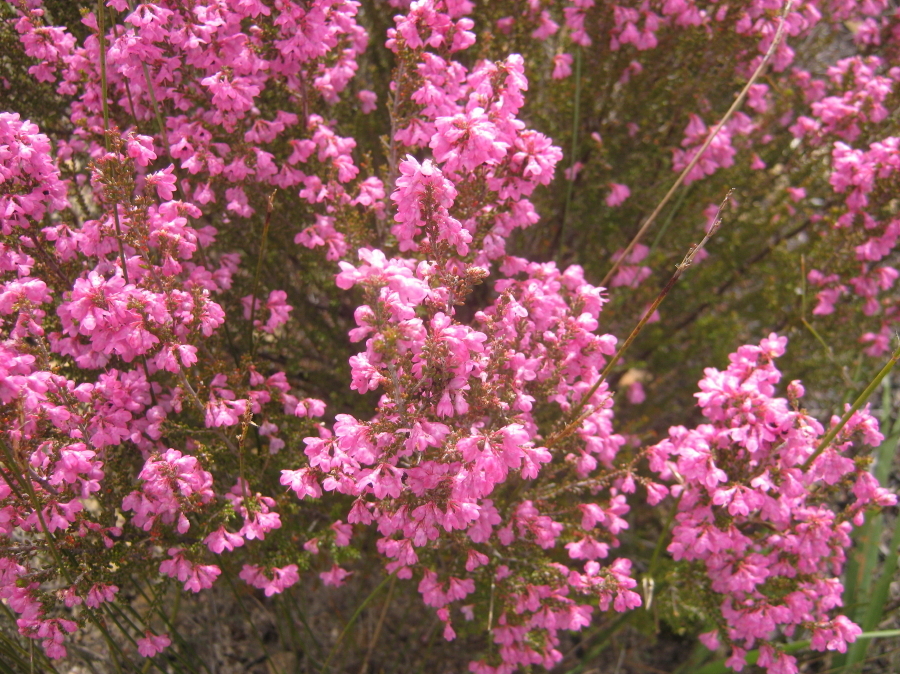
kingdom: Plantae
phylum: Tracheophyta
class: Magnoliopsida
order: Ericales
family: Ericaceae
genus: Erica
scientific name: Erica melanthera
